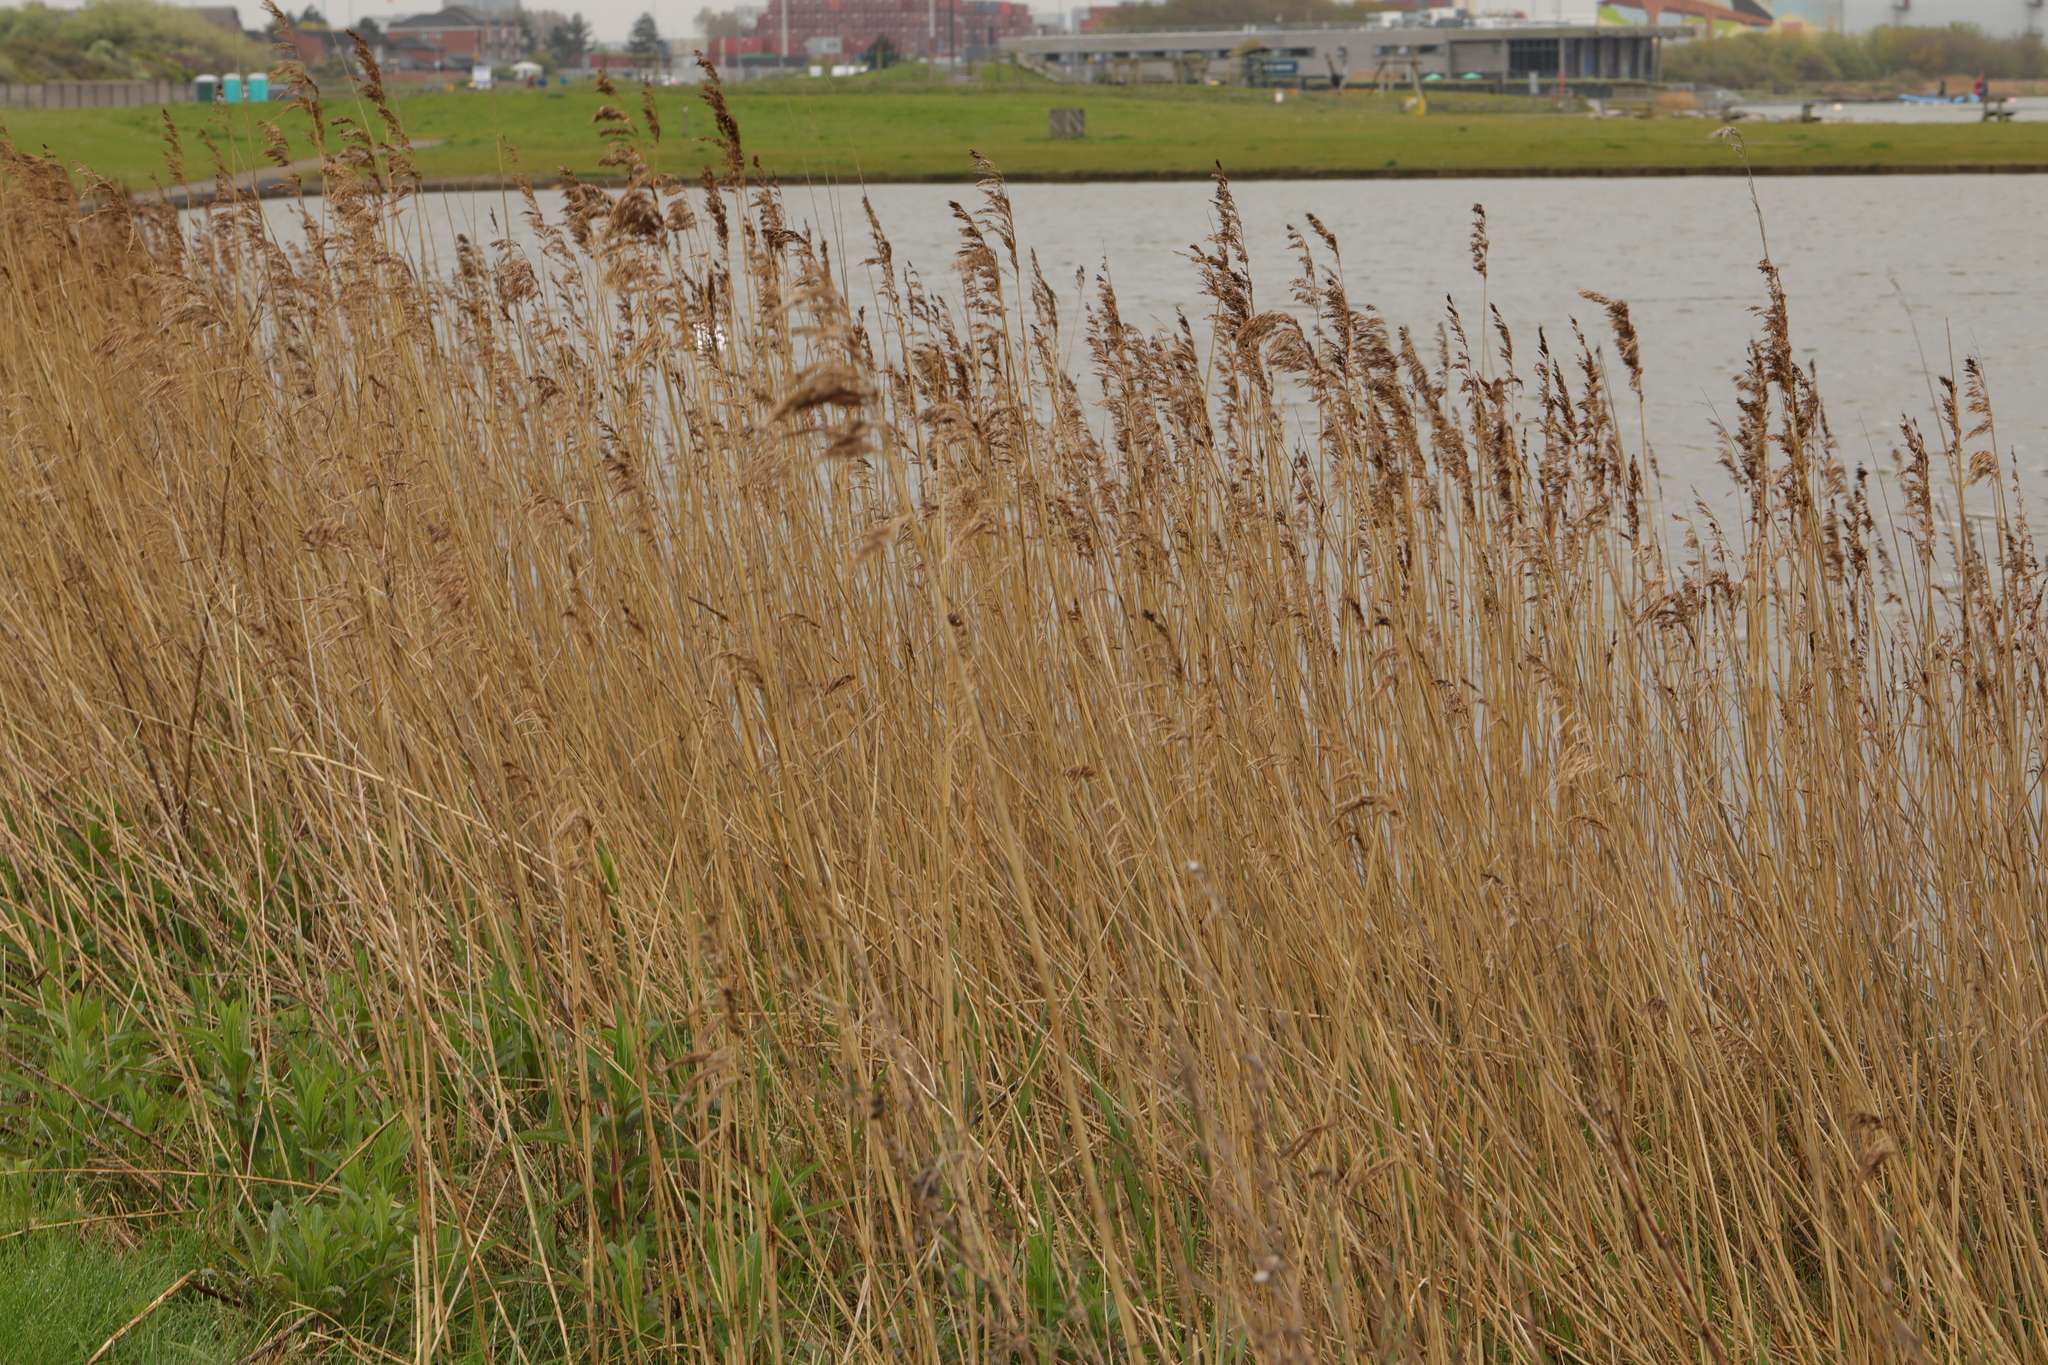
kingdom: Plantae
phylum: Tracheophyta
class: Liliopsida
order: Poales
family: Poaceae
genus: Phragmites
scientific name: Phragmites australis
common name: Common reed
